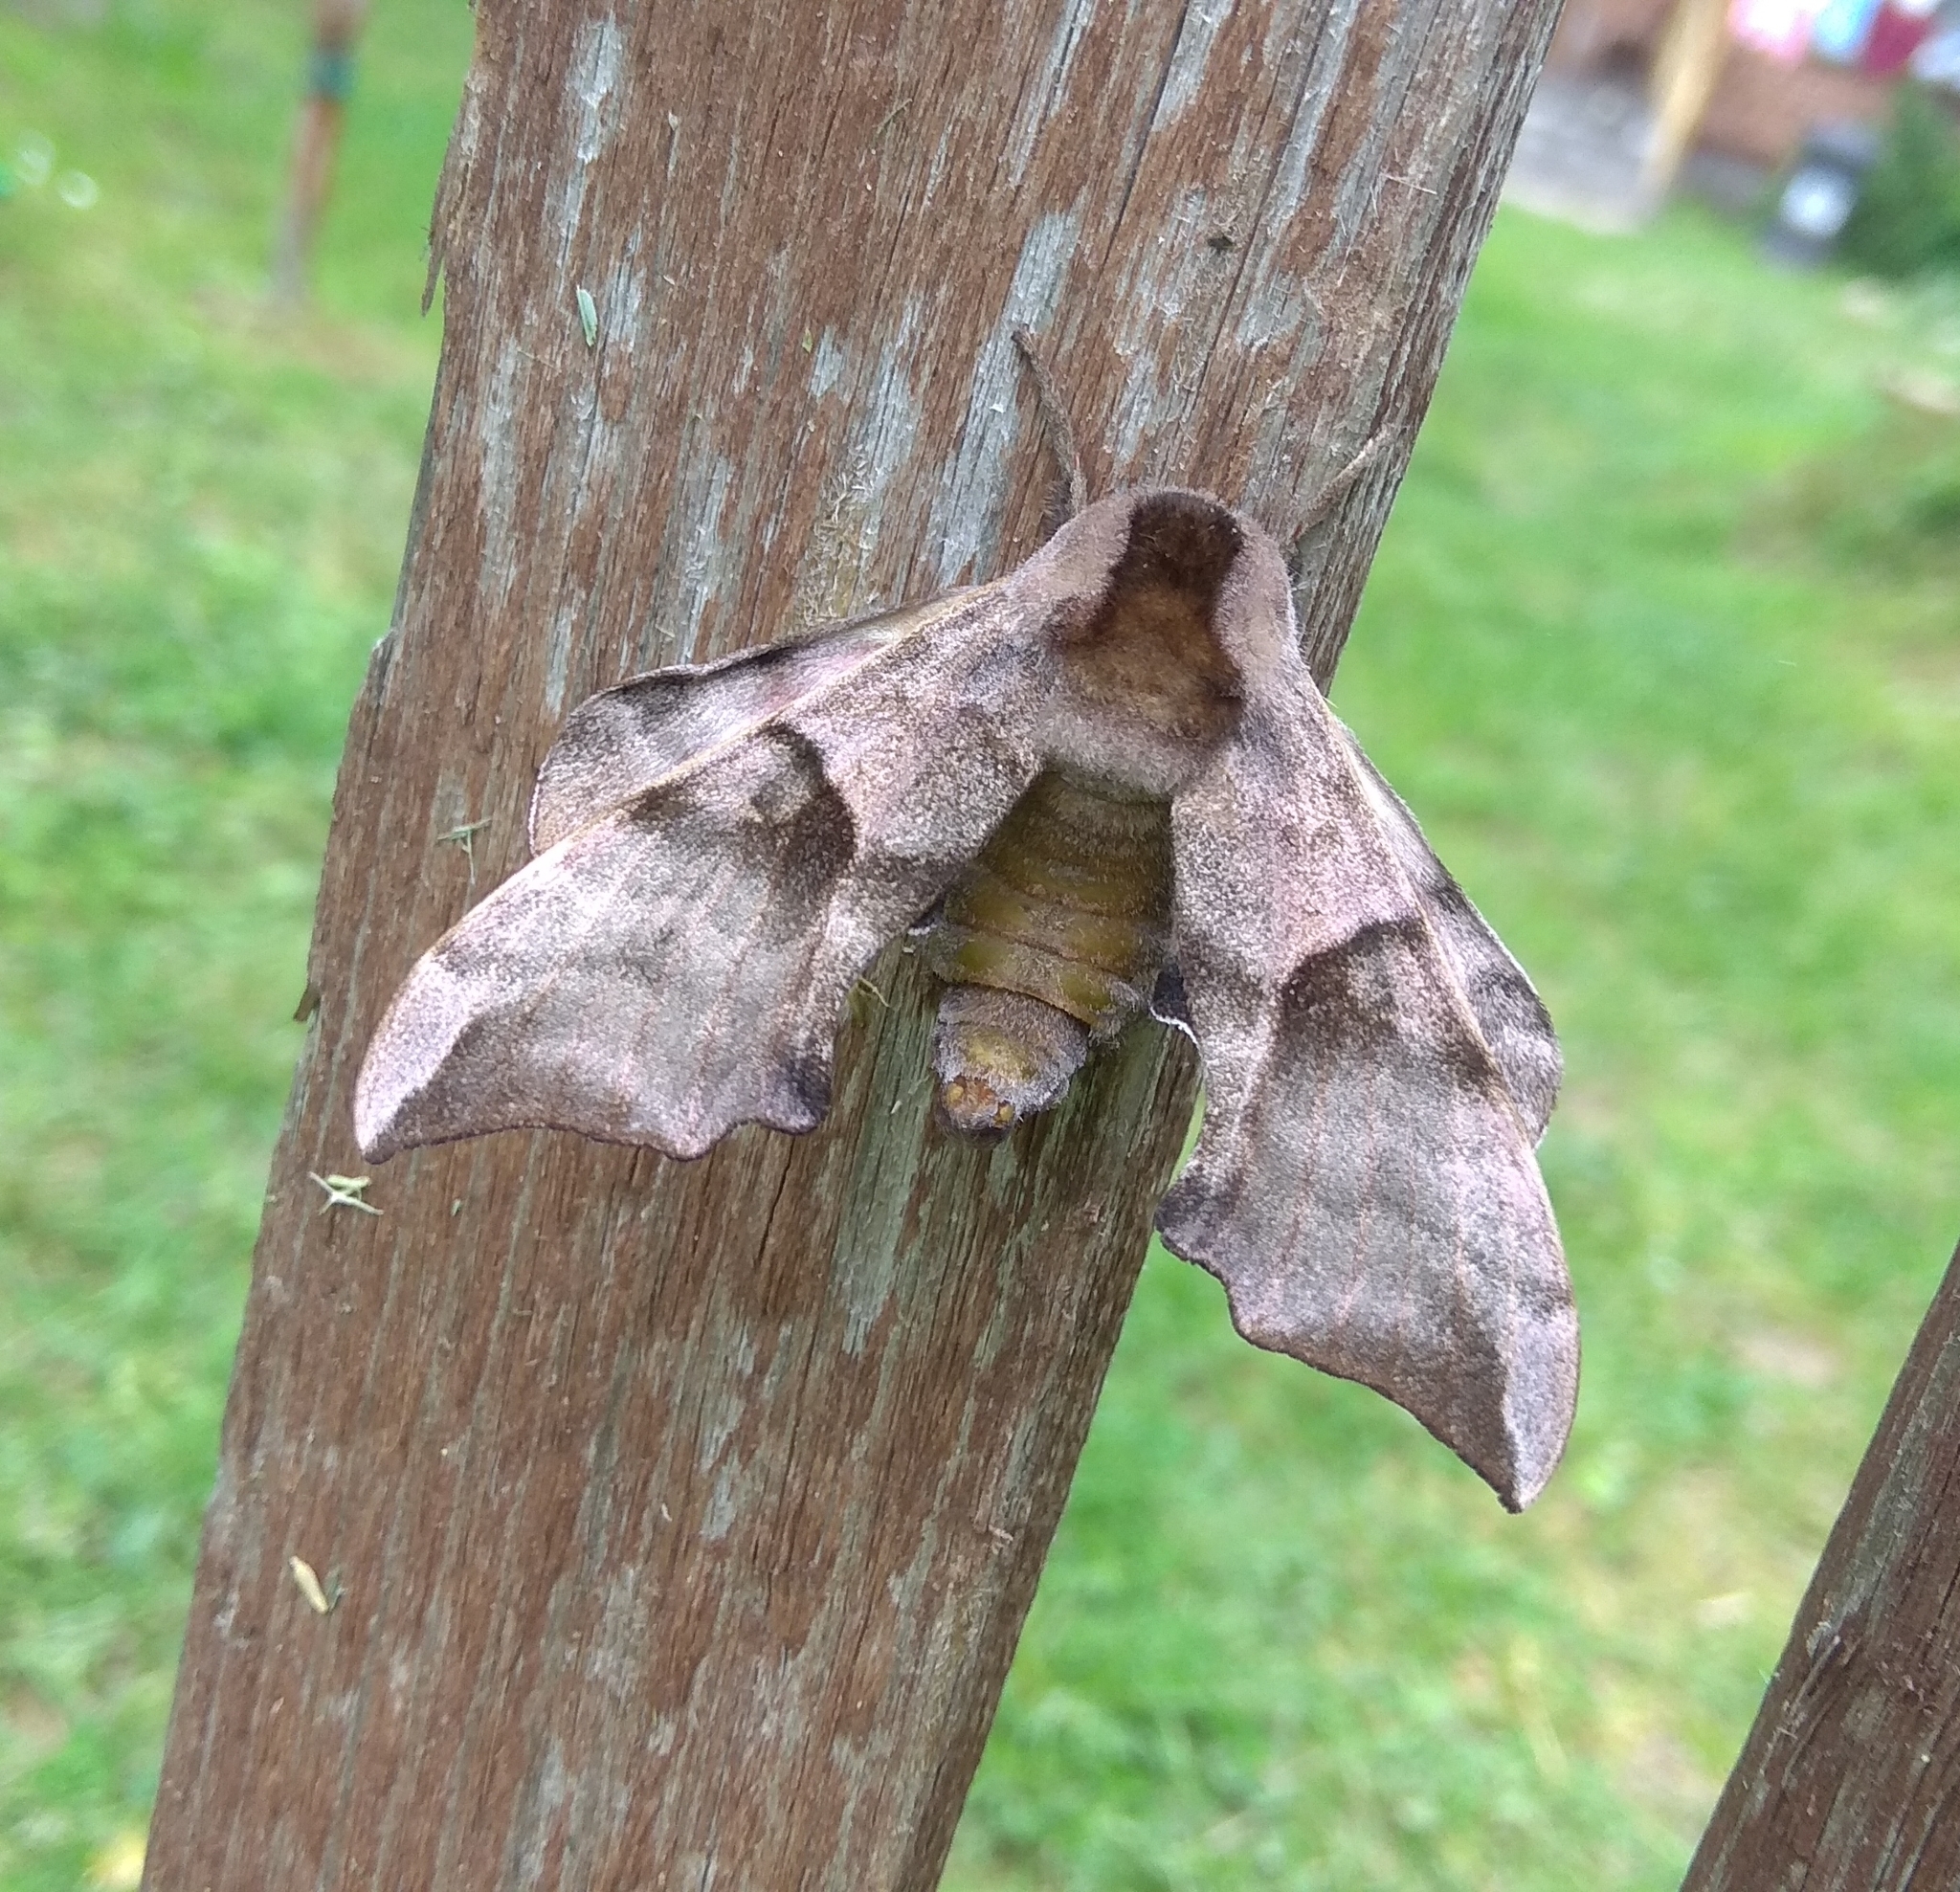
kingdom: Animalia
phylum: Arthropoda
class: Insecta
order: Lepidoptera
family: Sphingidae
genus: Smerinthus
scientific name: Smerinthus ocellata
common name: Eyed hawk-moth
